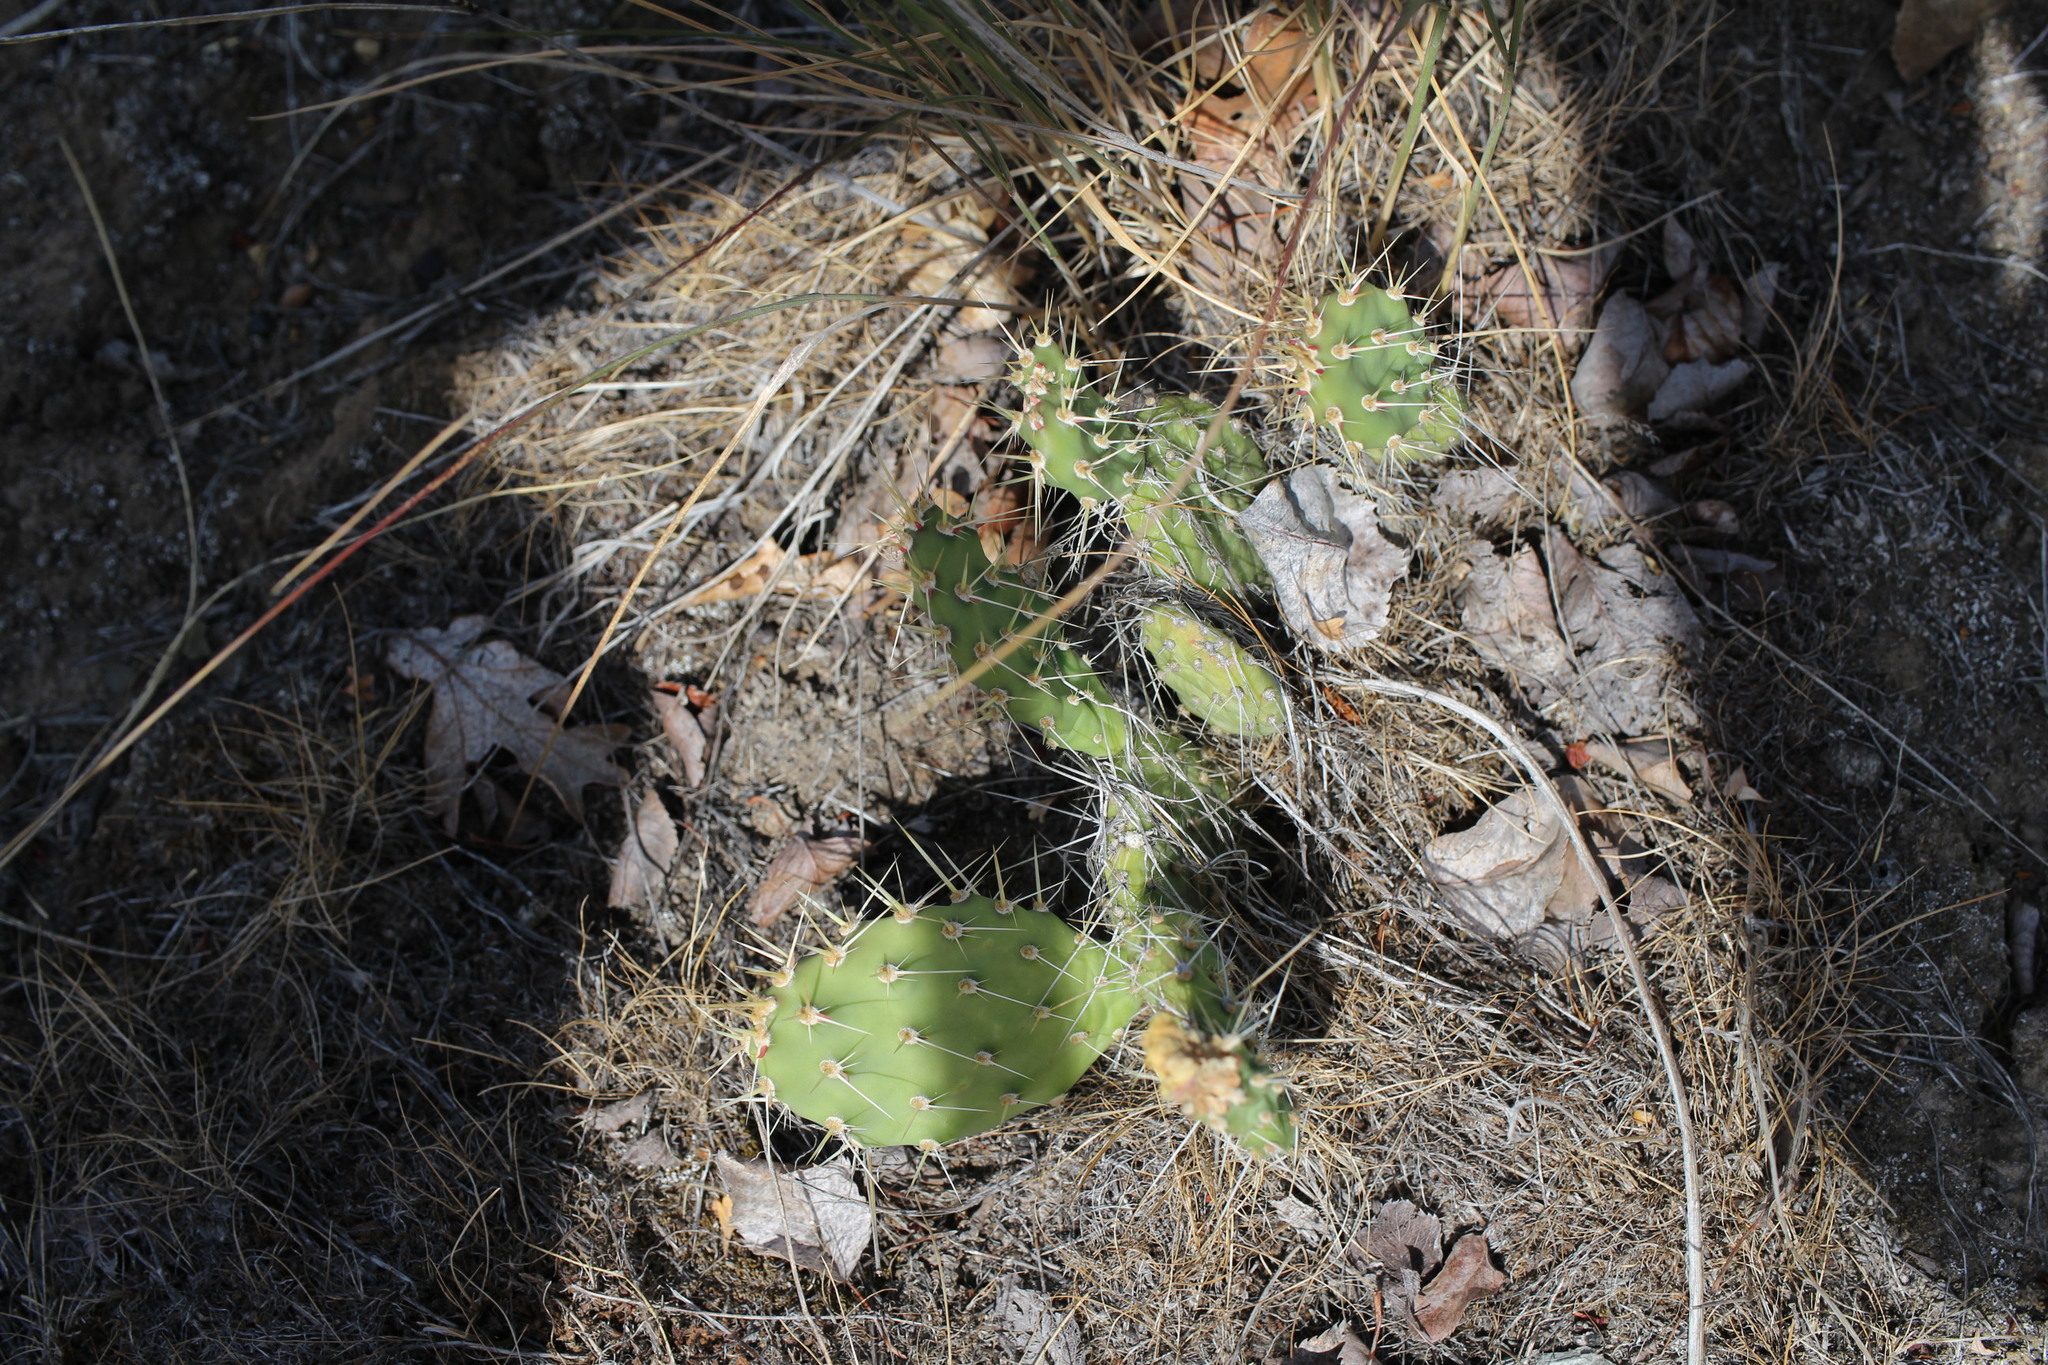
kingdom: Plantae
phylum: Tracheophyta
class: Magnoliopsida
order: Caryophyllales
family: Cactaceae
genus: Opuntia
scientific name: Opuntia columbiana
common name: Columbia prickly-pear
